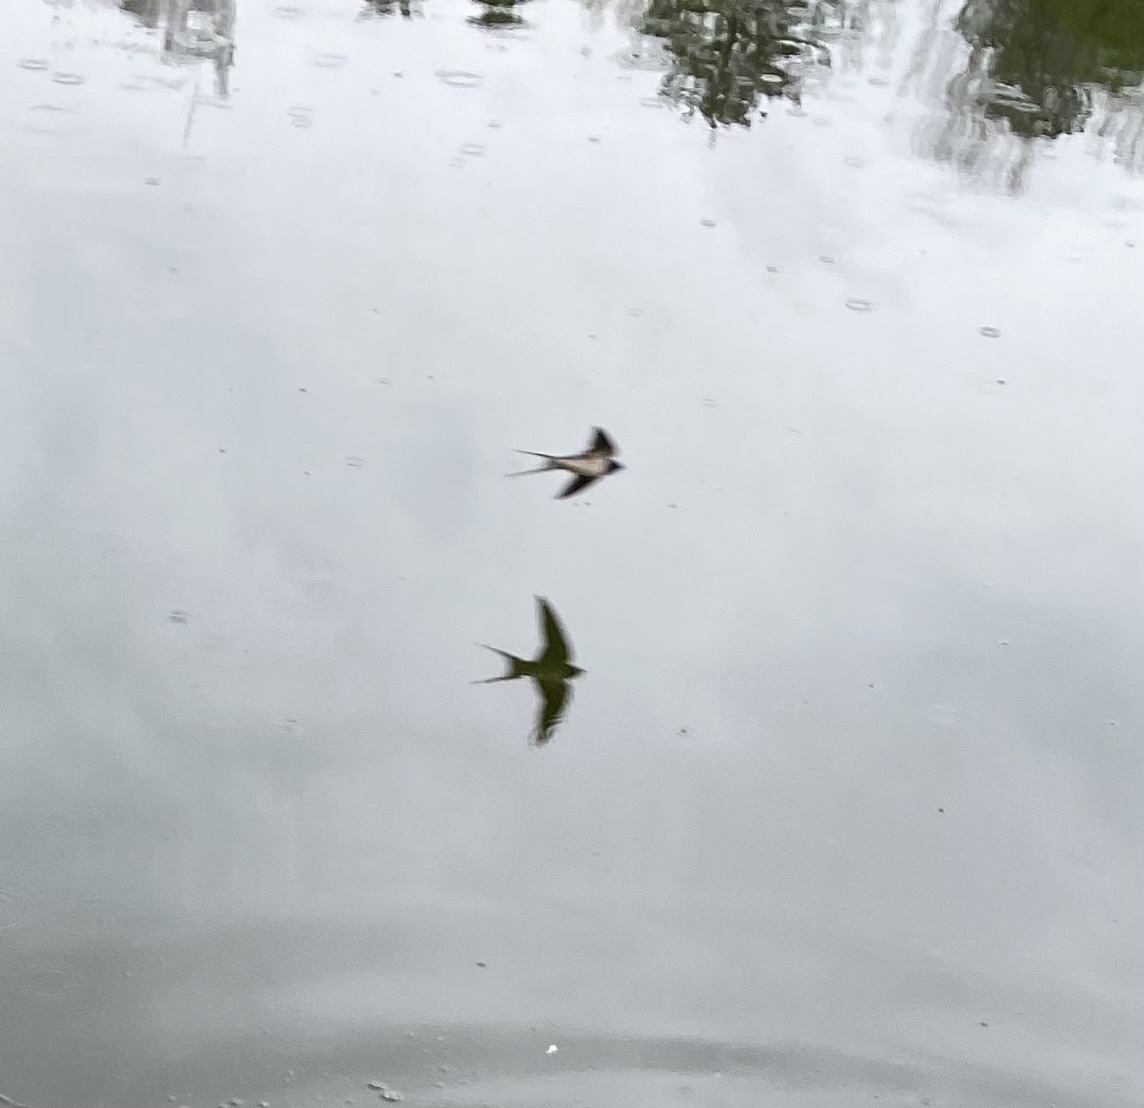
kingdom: Animalia
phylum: Chordata
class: Aves
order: Passeriformes
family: Hirundinidae
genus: Hirundo
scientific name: Hirundo rustica
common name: Barn swallow
